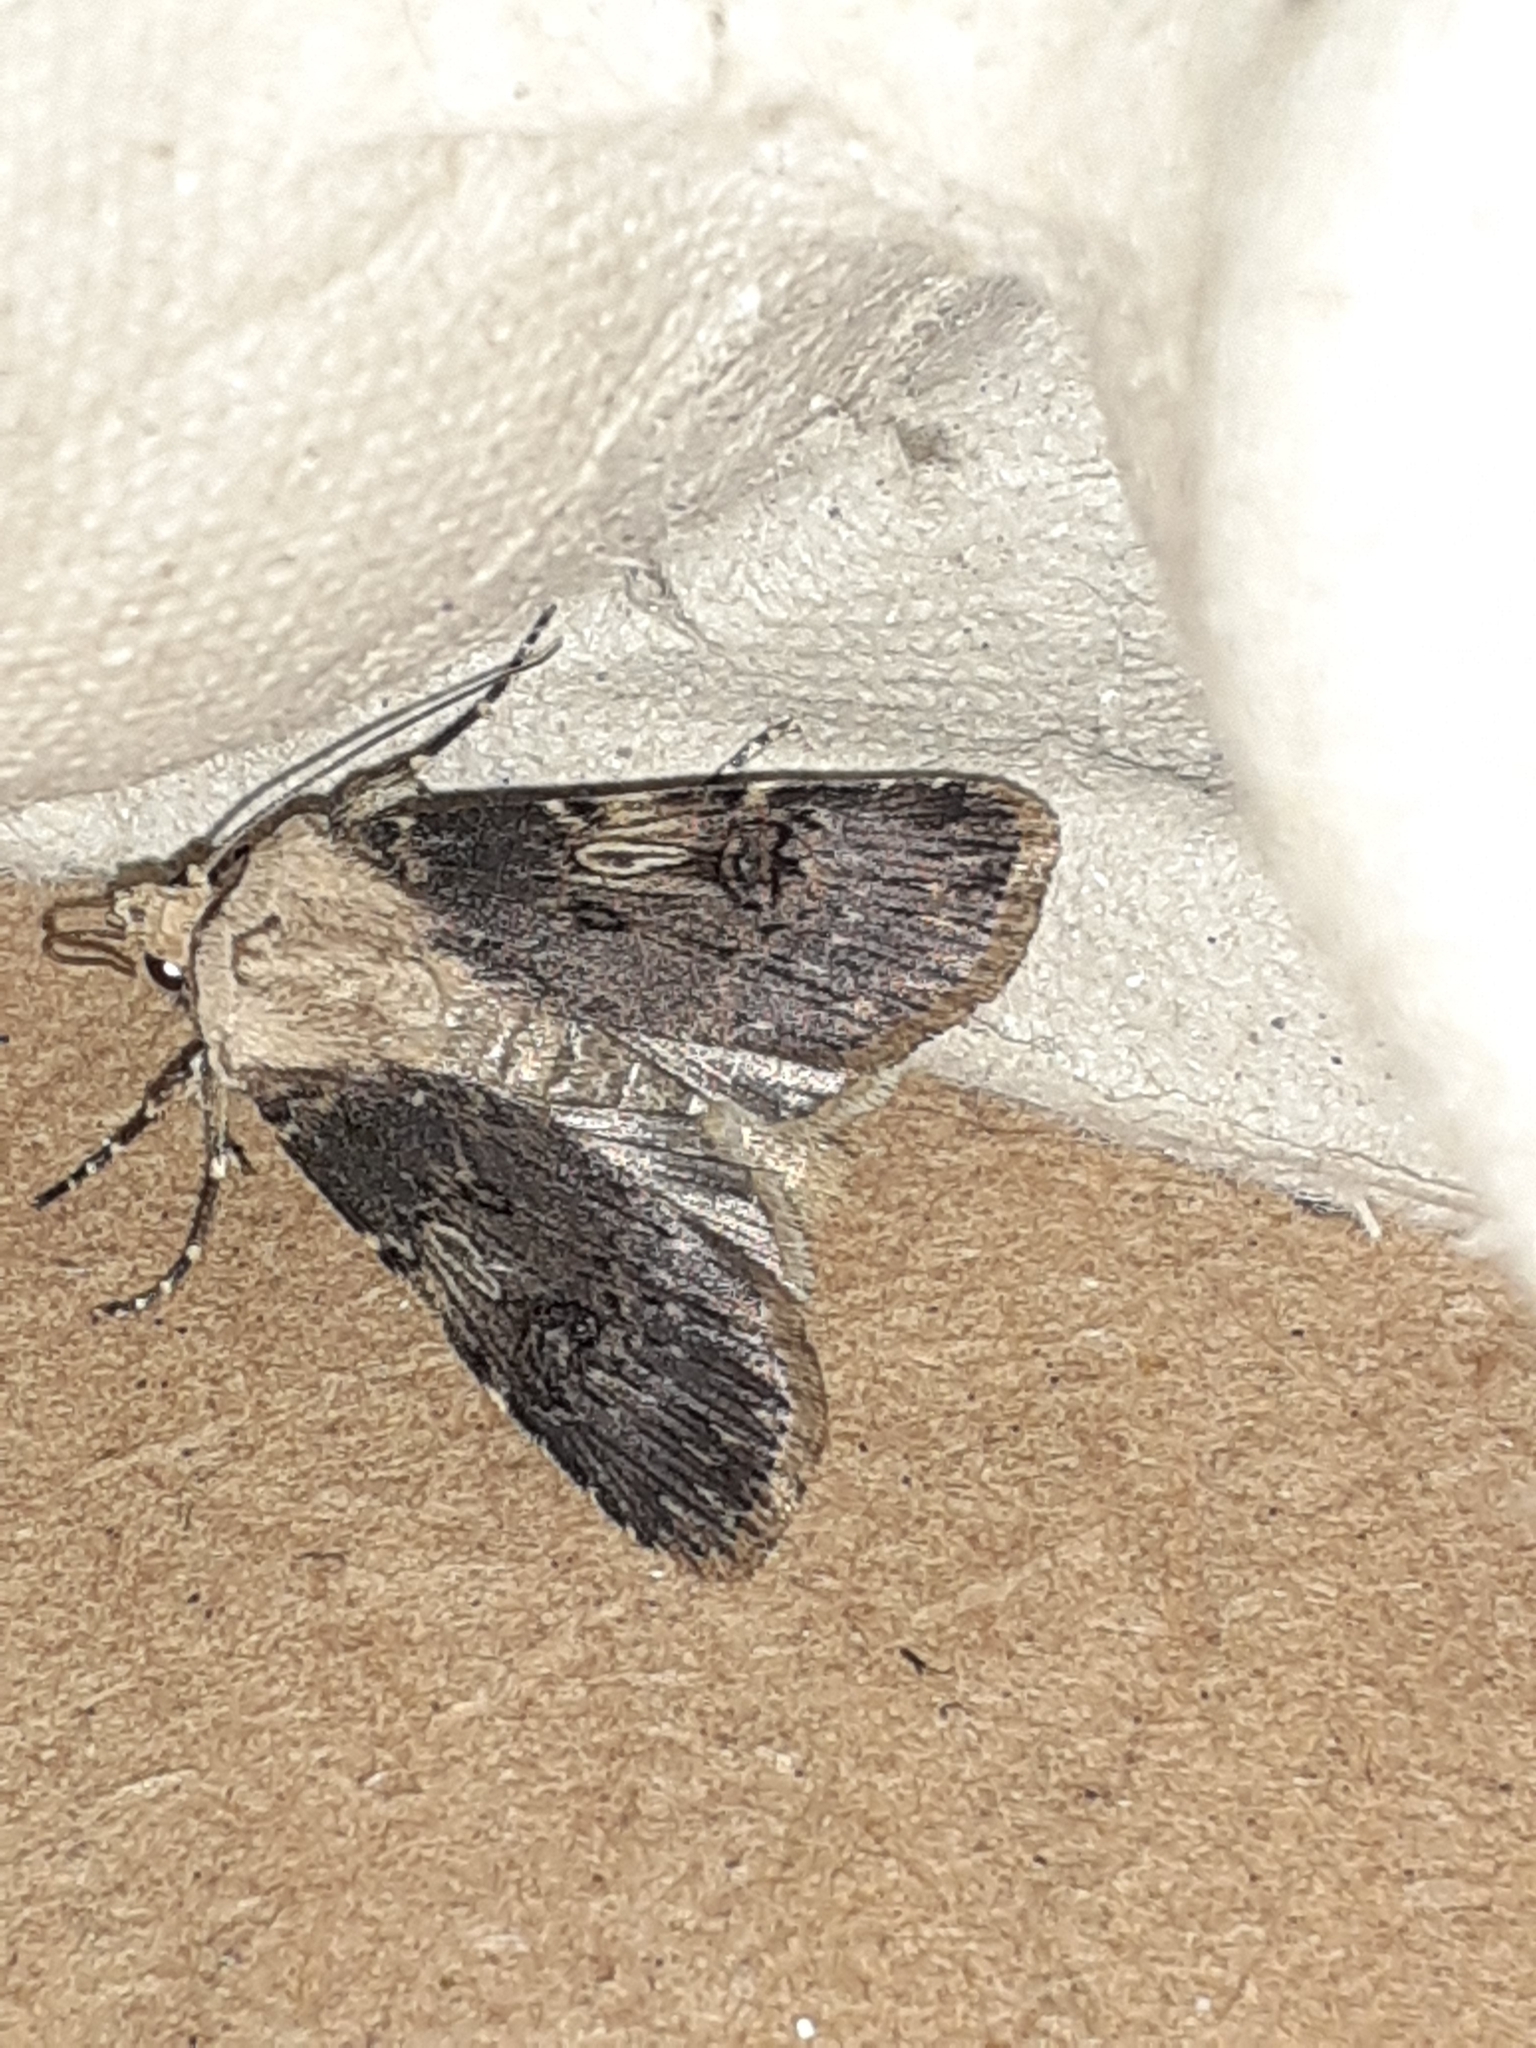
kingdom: Animalia
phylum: Arthropoda
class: Insecta
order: Lepidoptera
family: Noctuidae
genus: Agrotis
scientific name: Agrotis puta
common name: Shuttle-shaped dart
